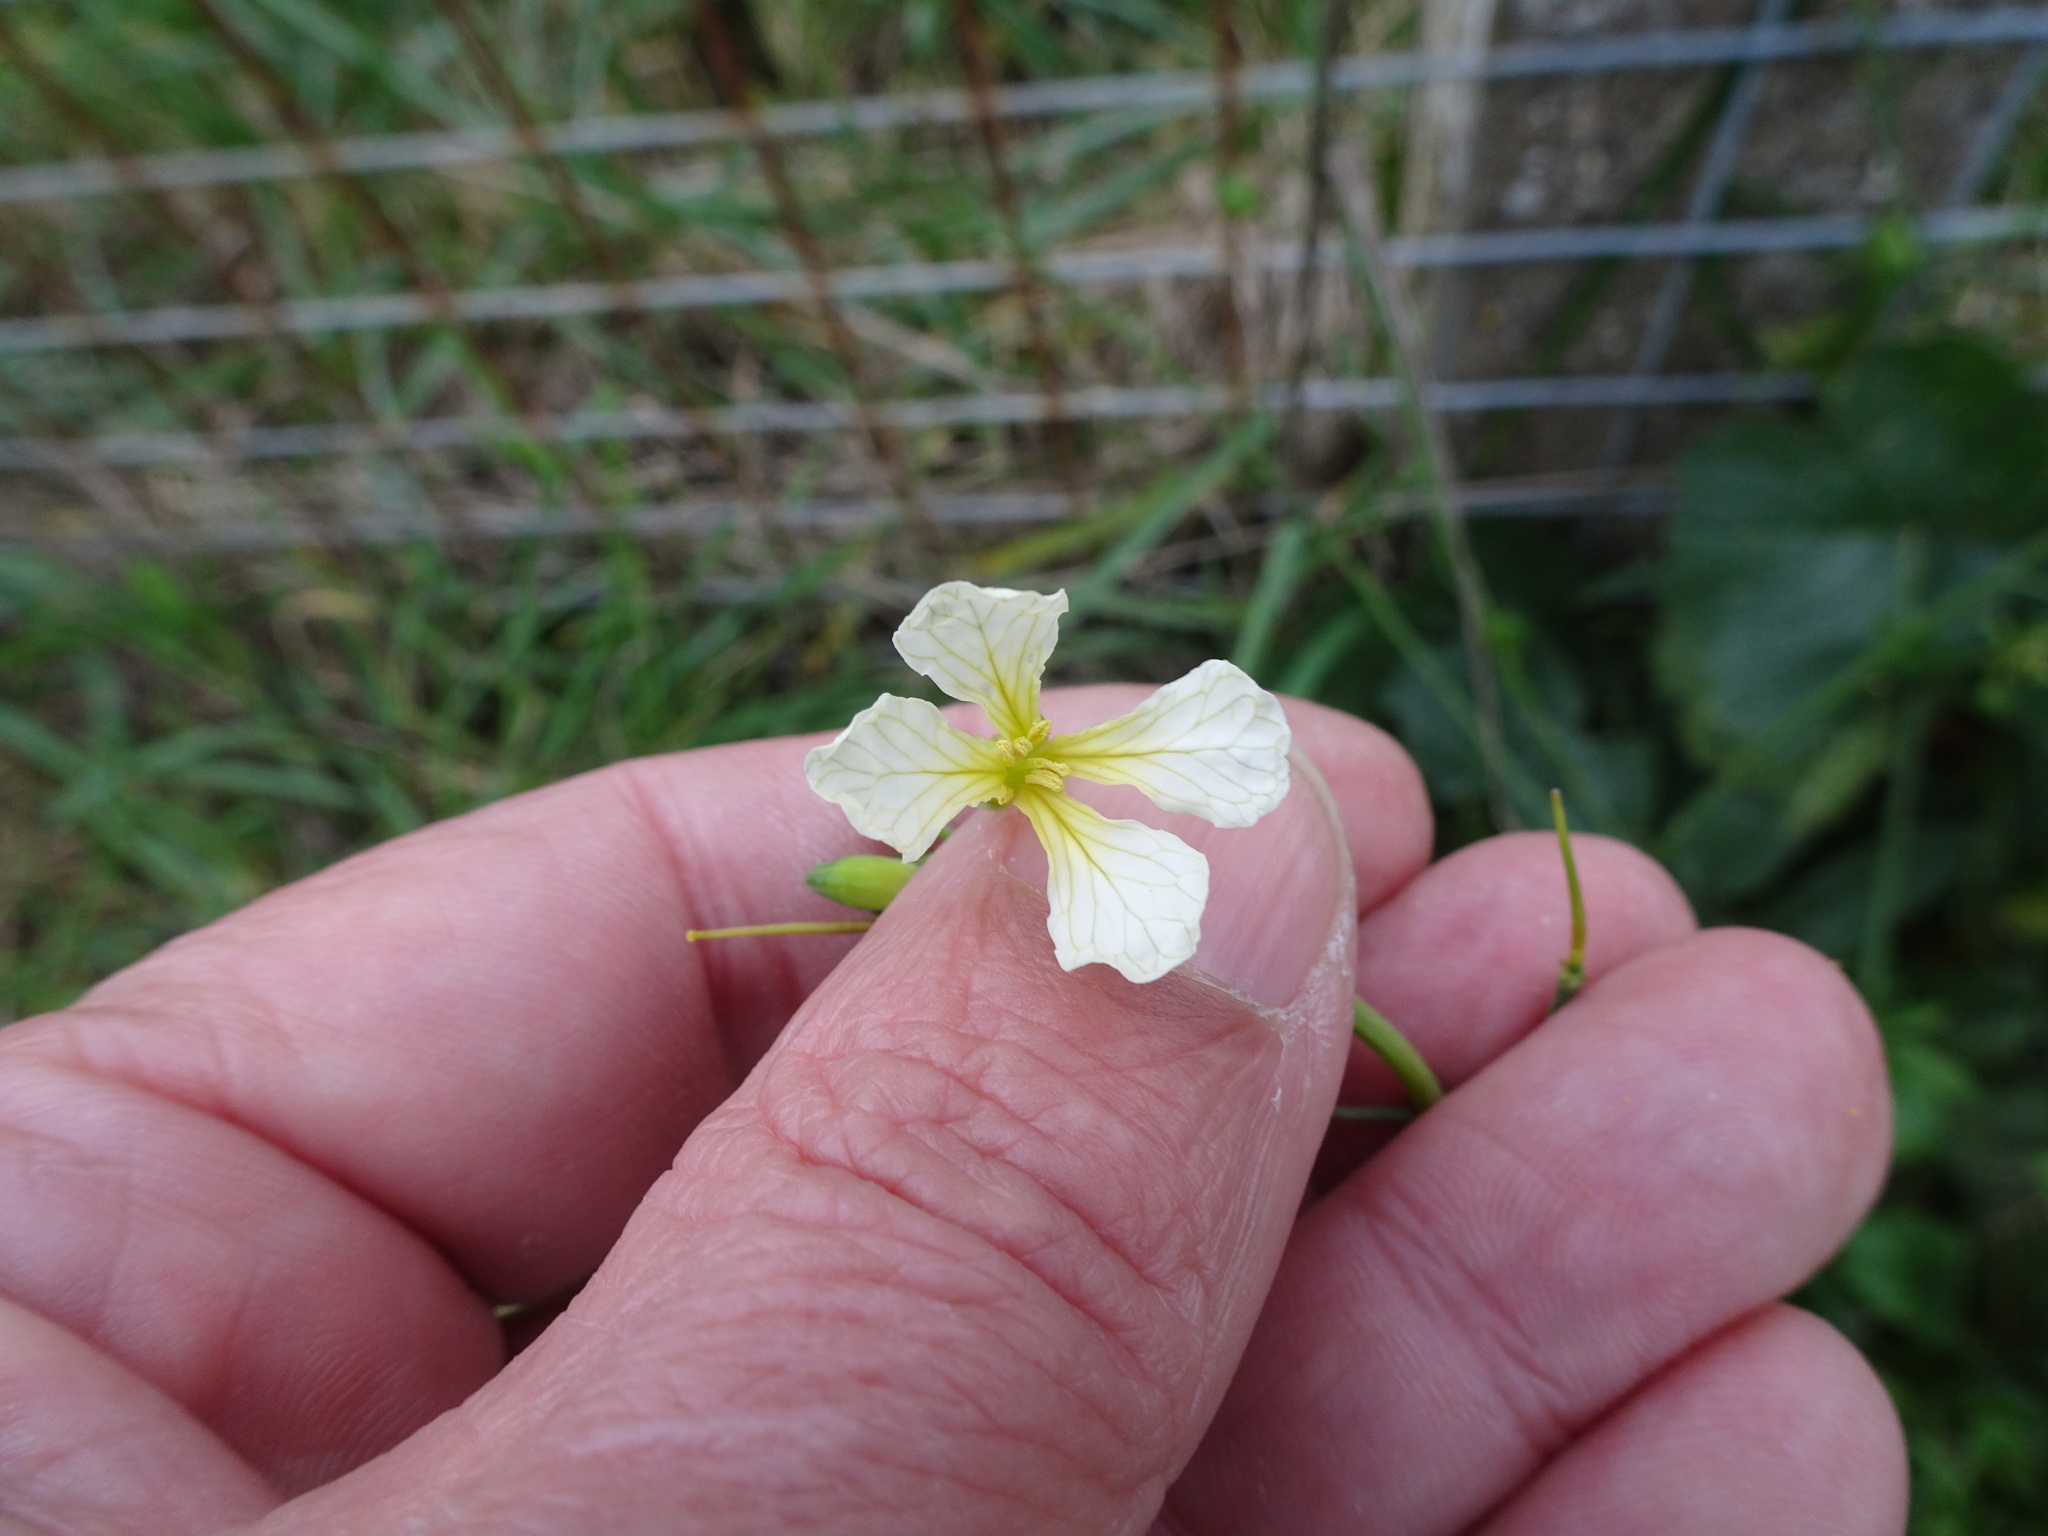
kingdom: Plantae
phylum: Tracheophyta
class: Magnoliopsida
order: Brassicales
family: Brassicaceae
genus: Raphanus
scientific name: Raphanus raphanistrum
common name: Wild radish
